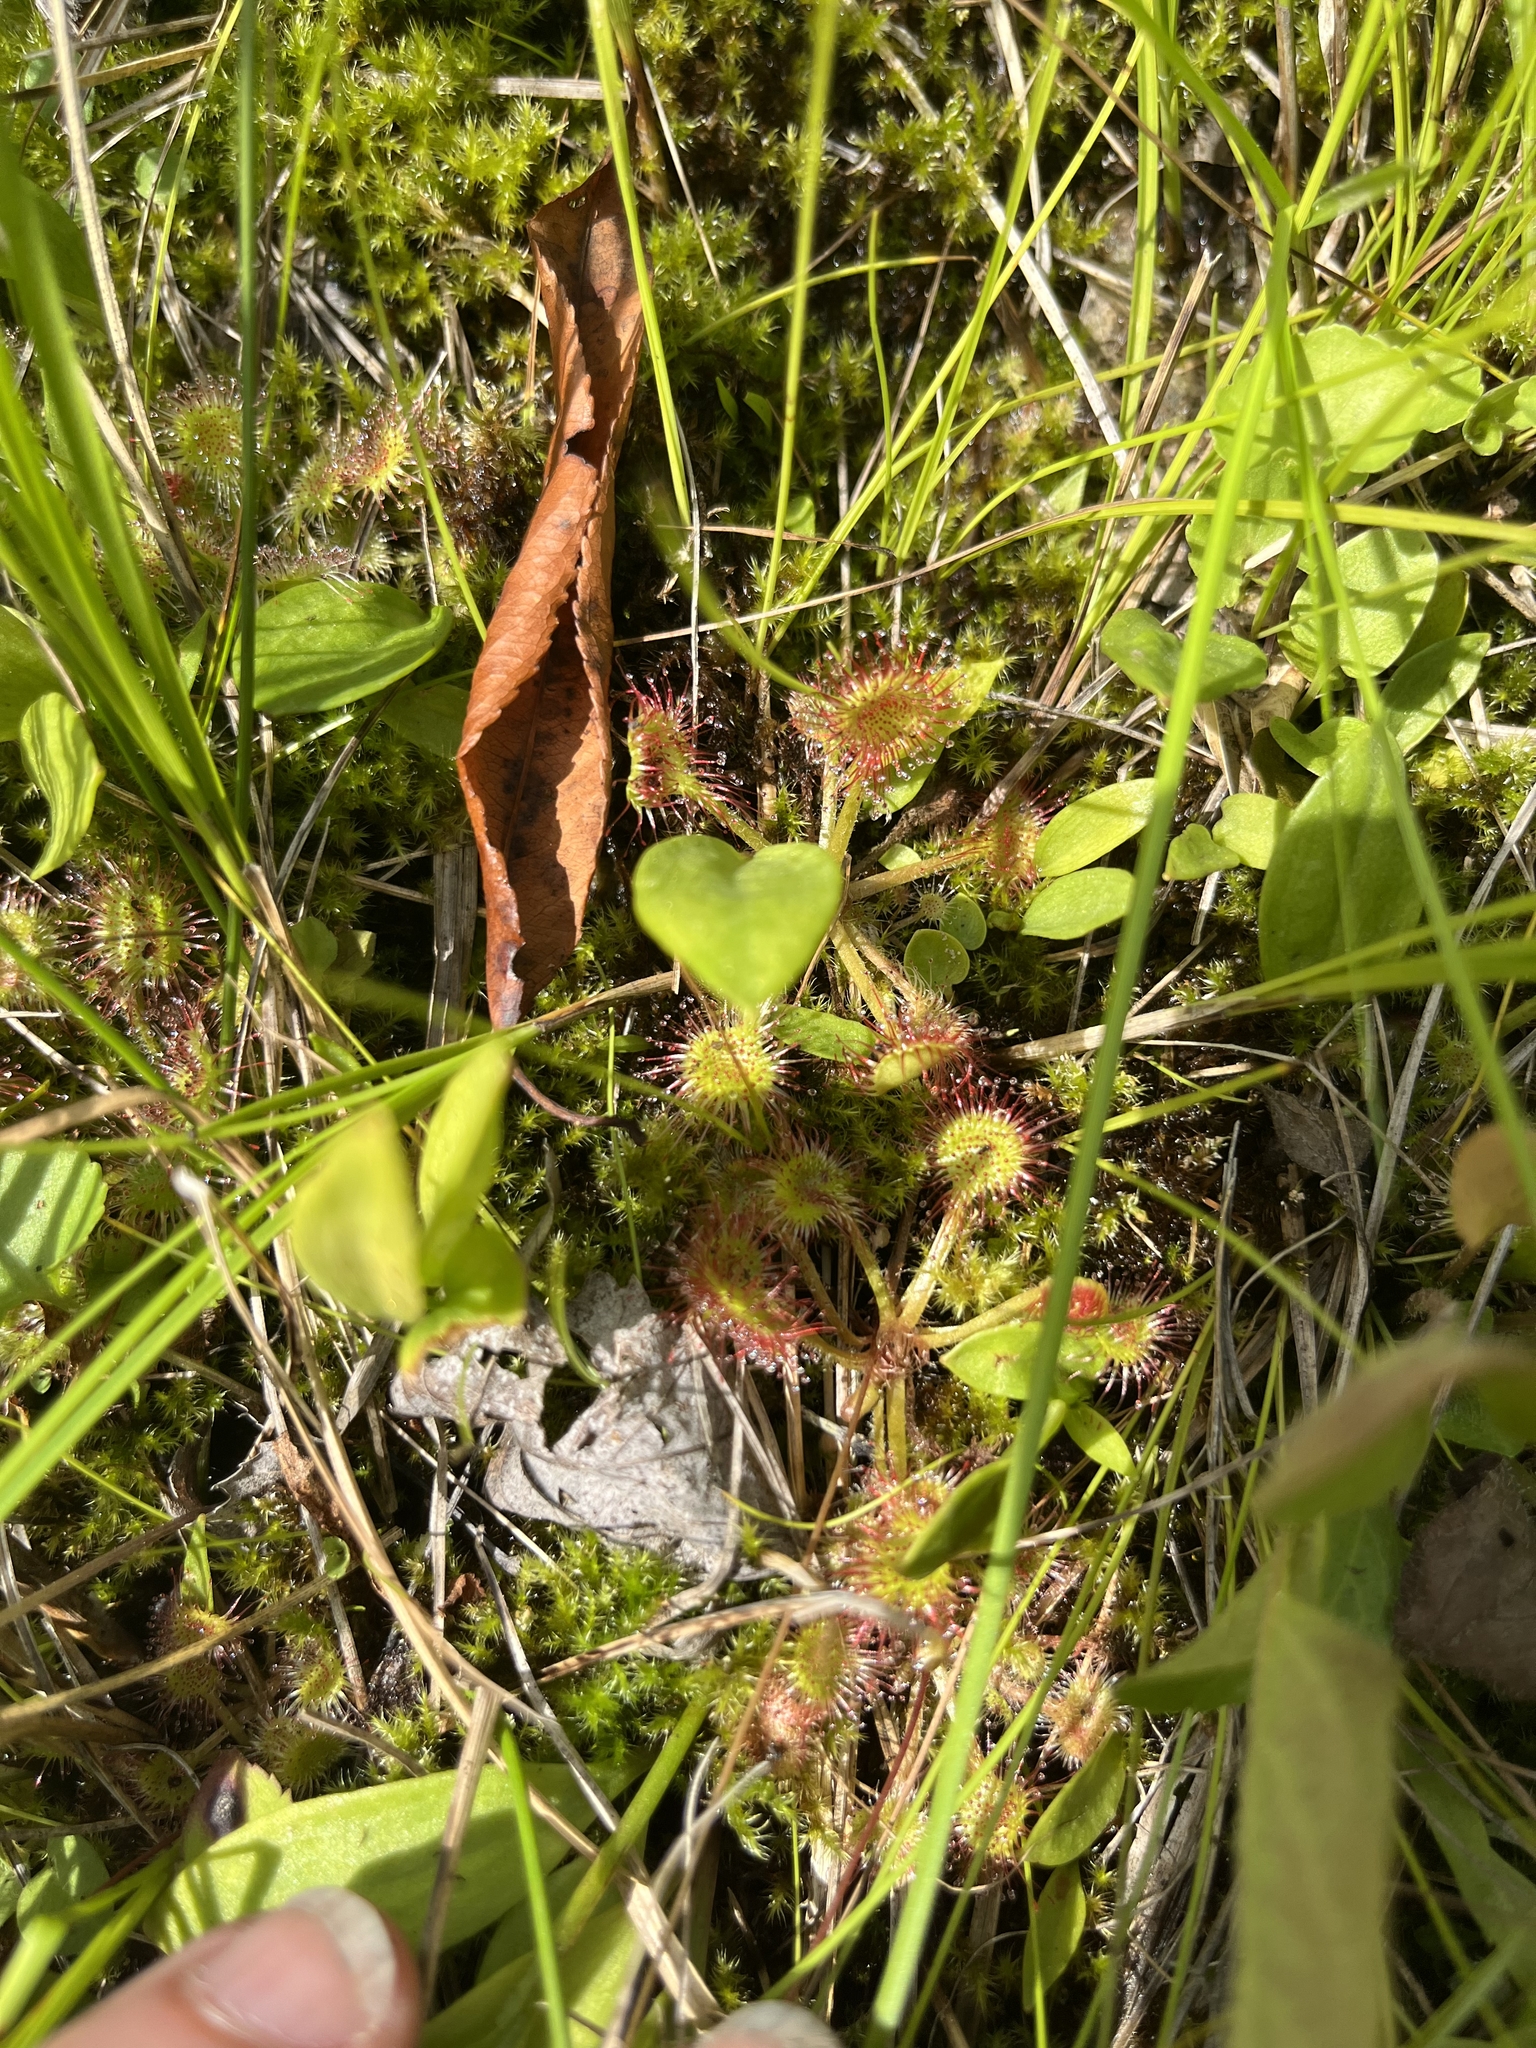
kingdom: Plantae
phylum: Tracheophyta
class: Magnoliopsida
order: Caryophyllales
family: Droseraceae
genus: Drosera
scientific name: Drosera rotundifolia
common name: Round-leaved sundew
